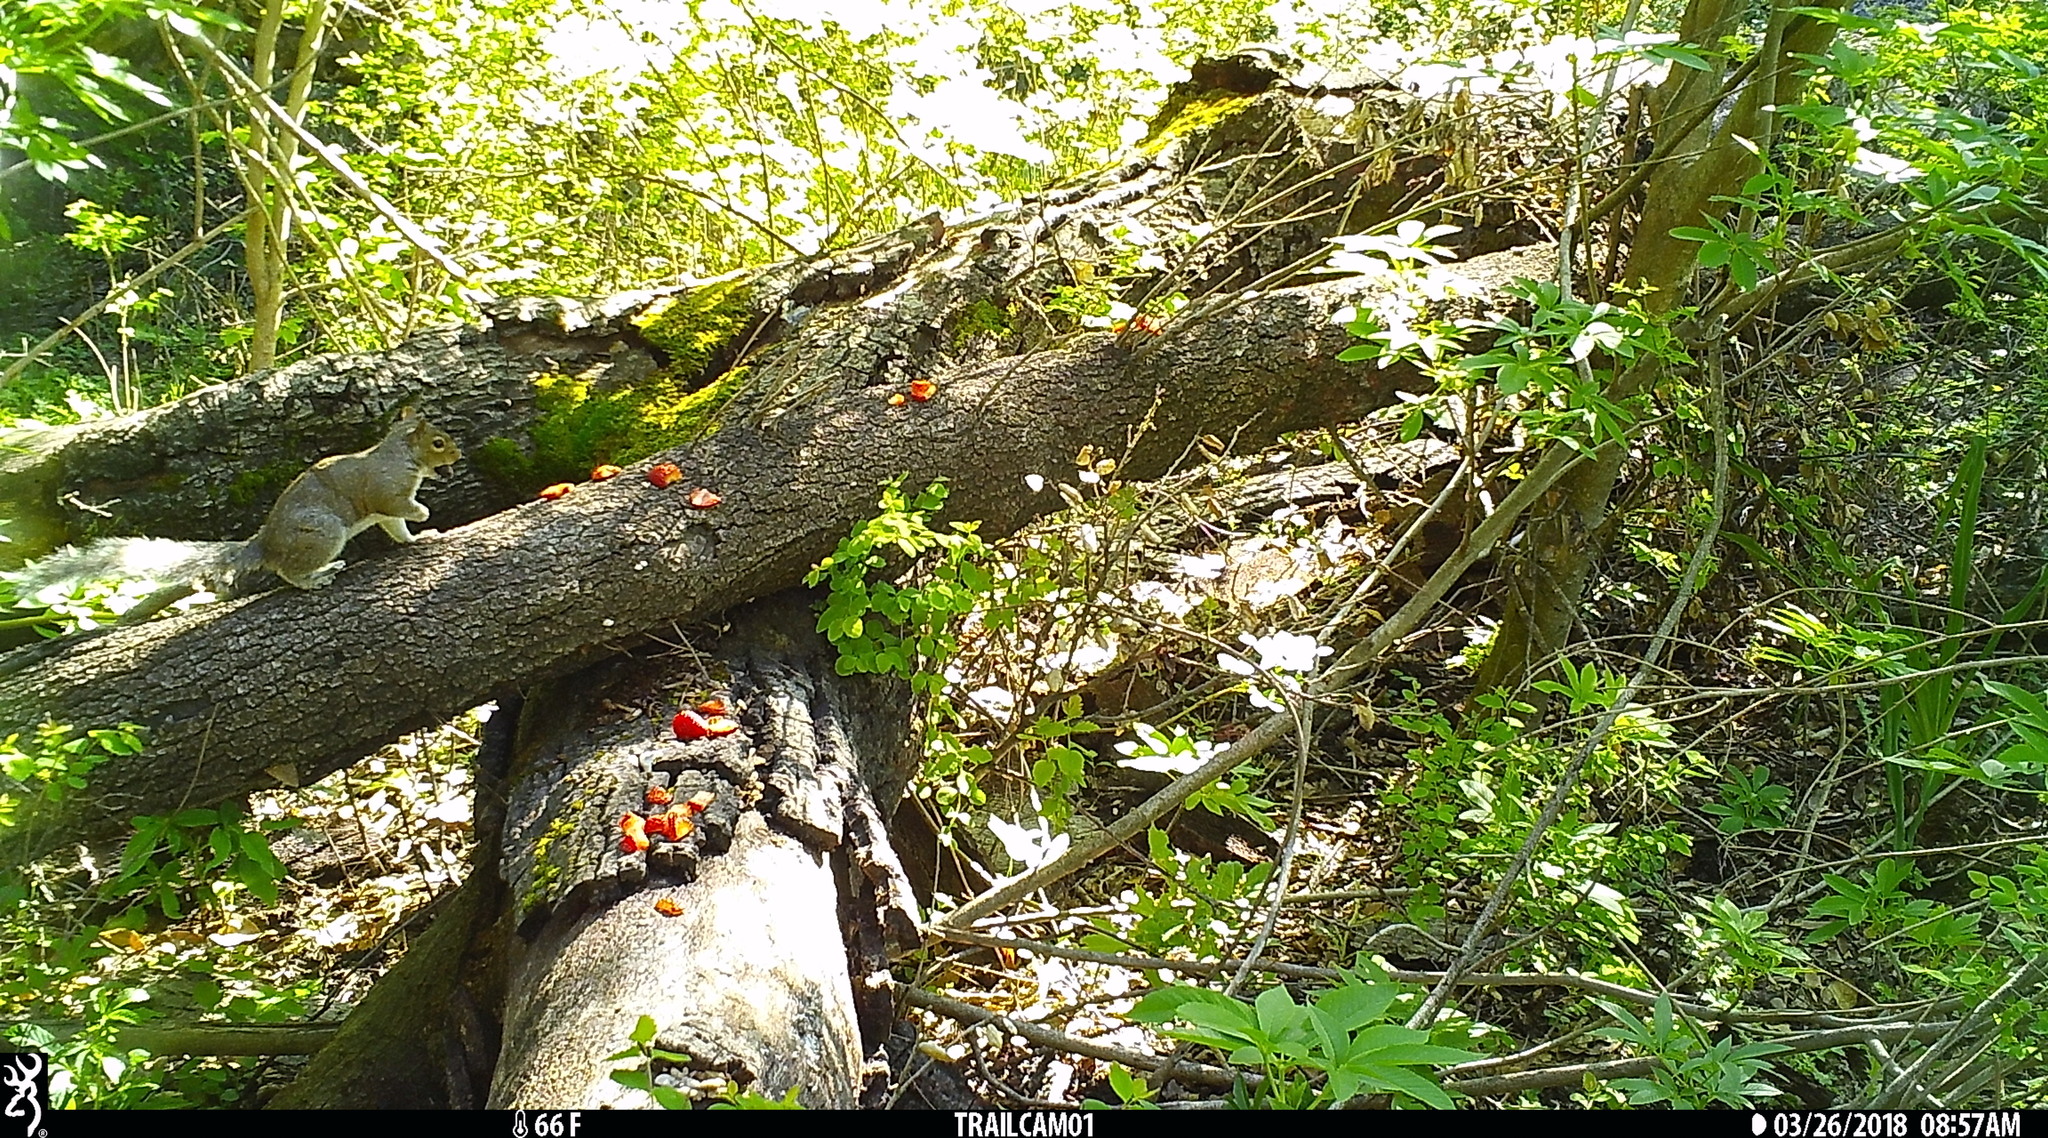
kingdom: Animalia
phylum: Chordata
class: Mammalia
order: Rodentia
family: Sciuridae
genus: Sciurus
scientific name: Sciurus carolinensis
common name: Eastern gray squirrel
